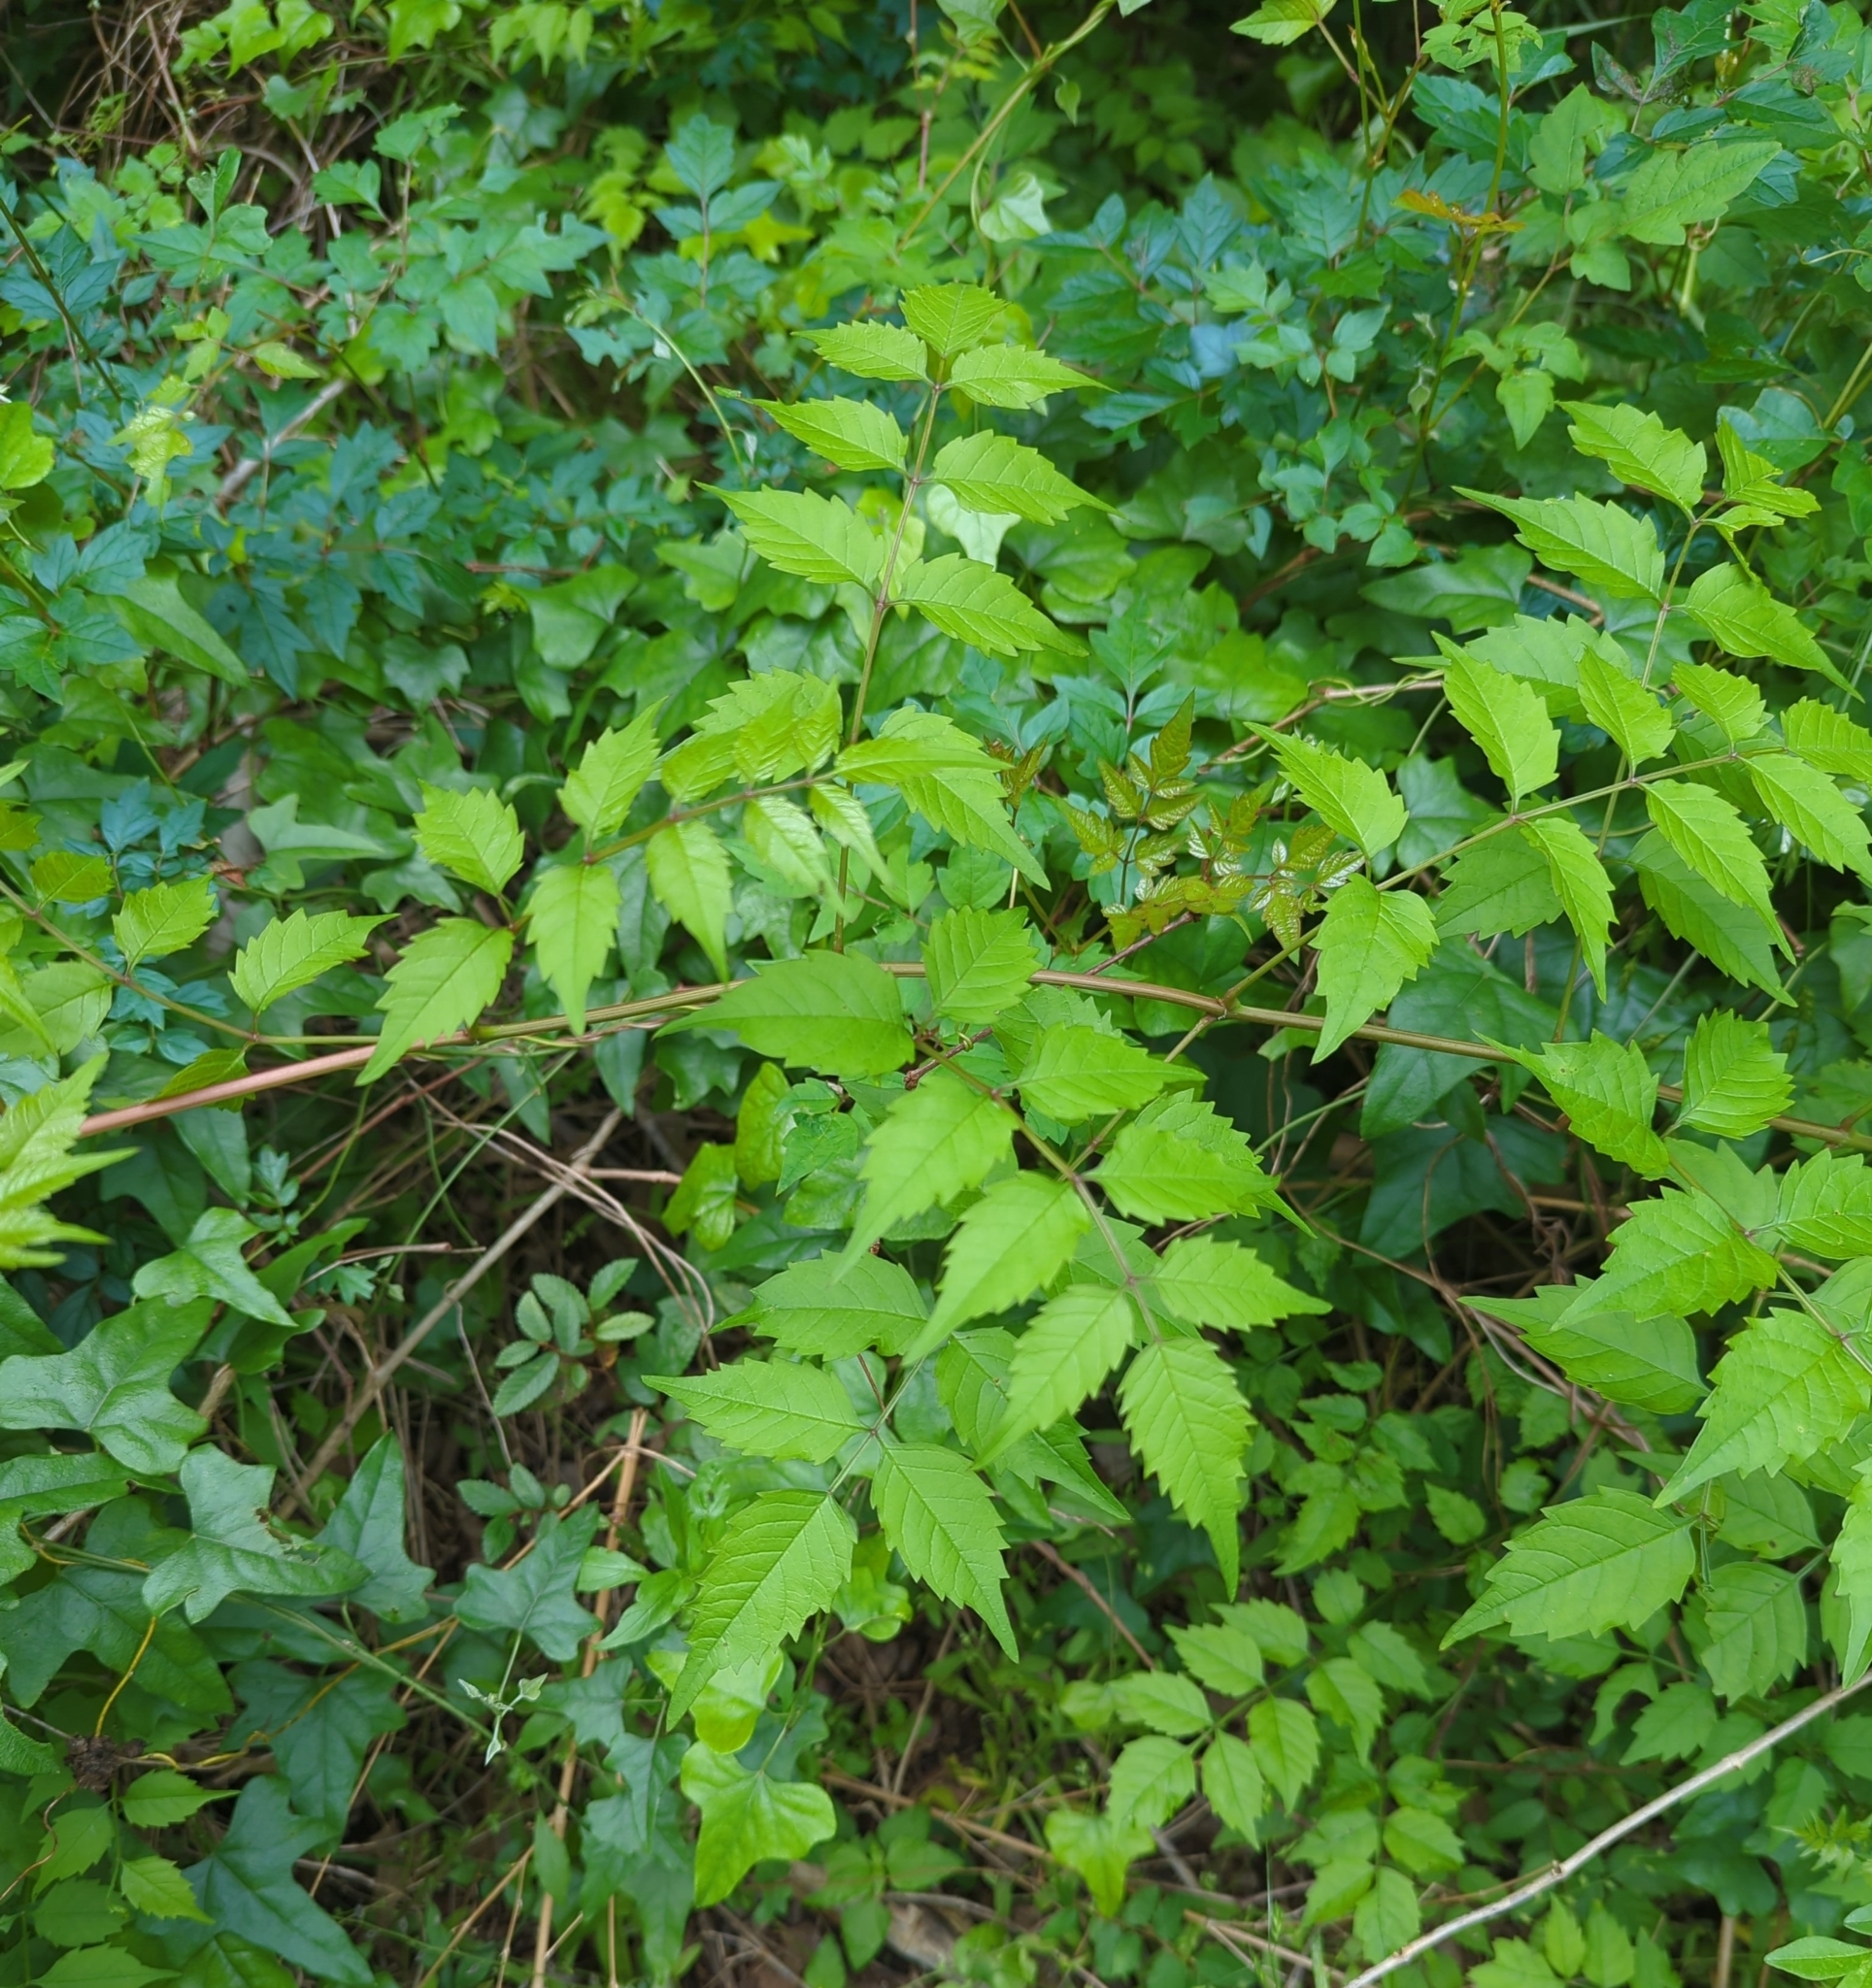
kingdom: Plantae
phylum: Tracheophyta
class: Magnoliopsida
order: Lamiales
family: Bignoniaceae
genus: Campsis
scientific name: Campsis radicans
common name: Trumpet-creeper
